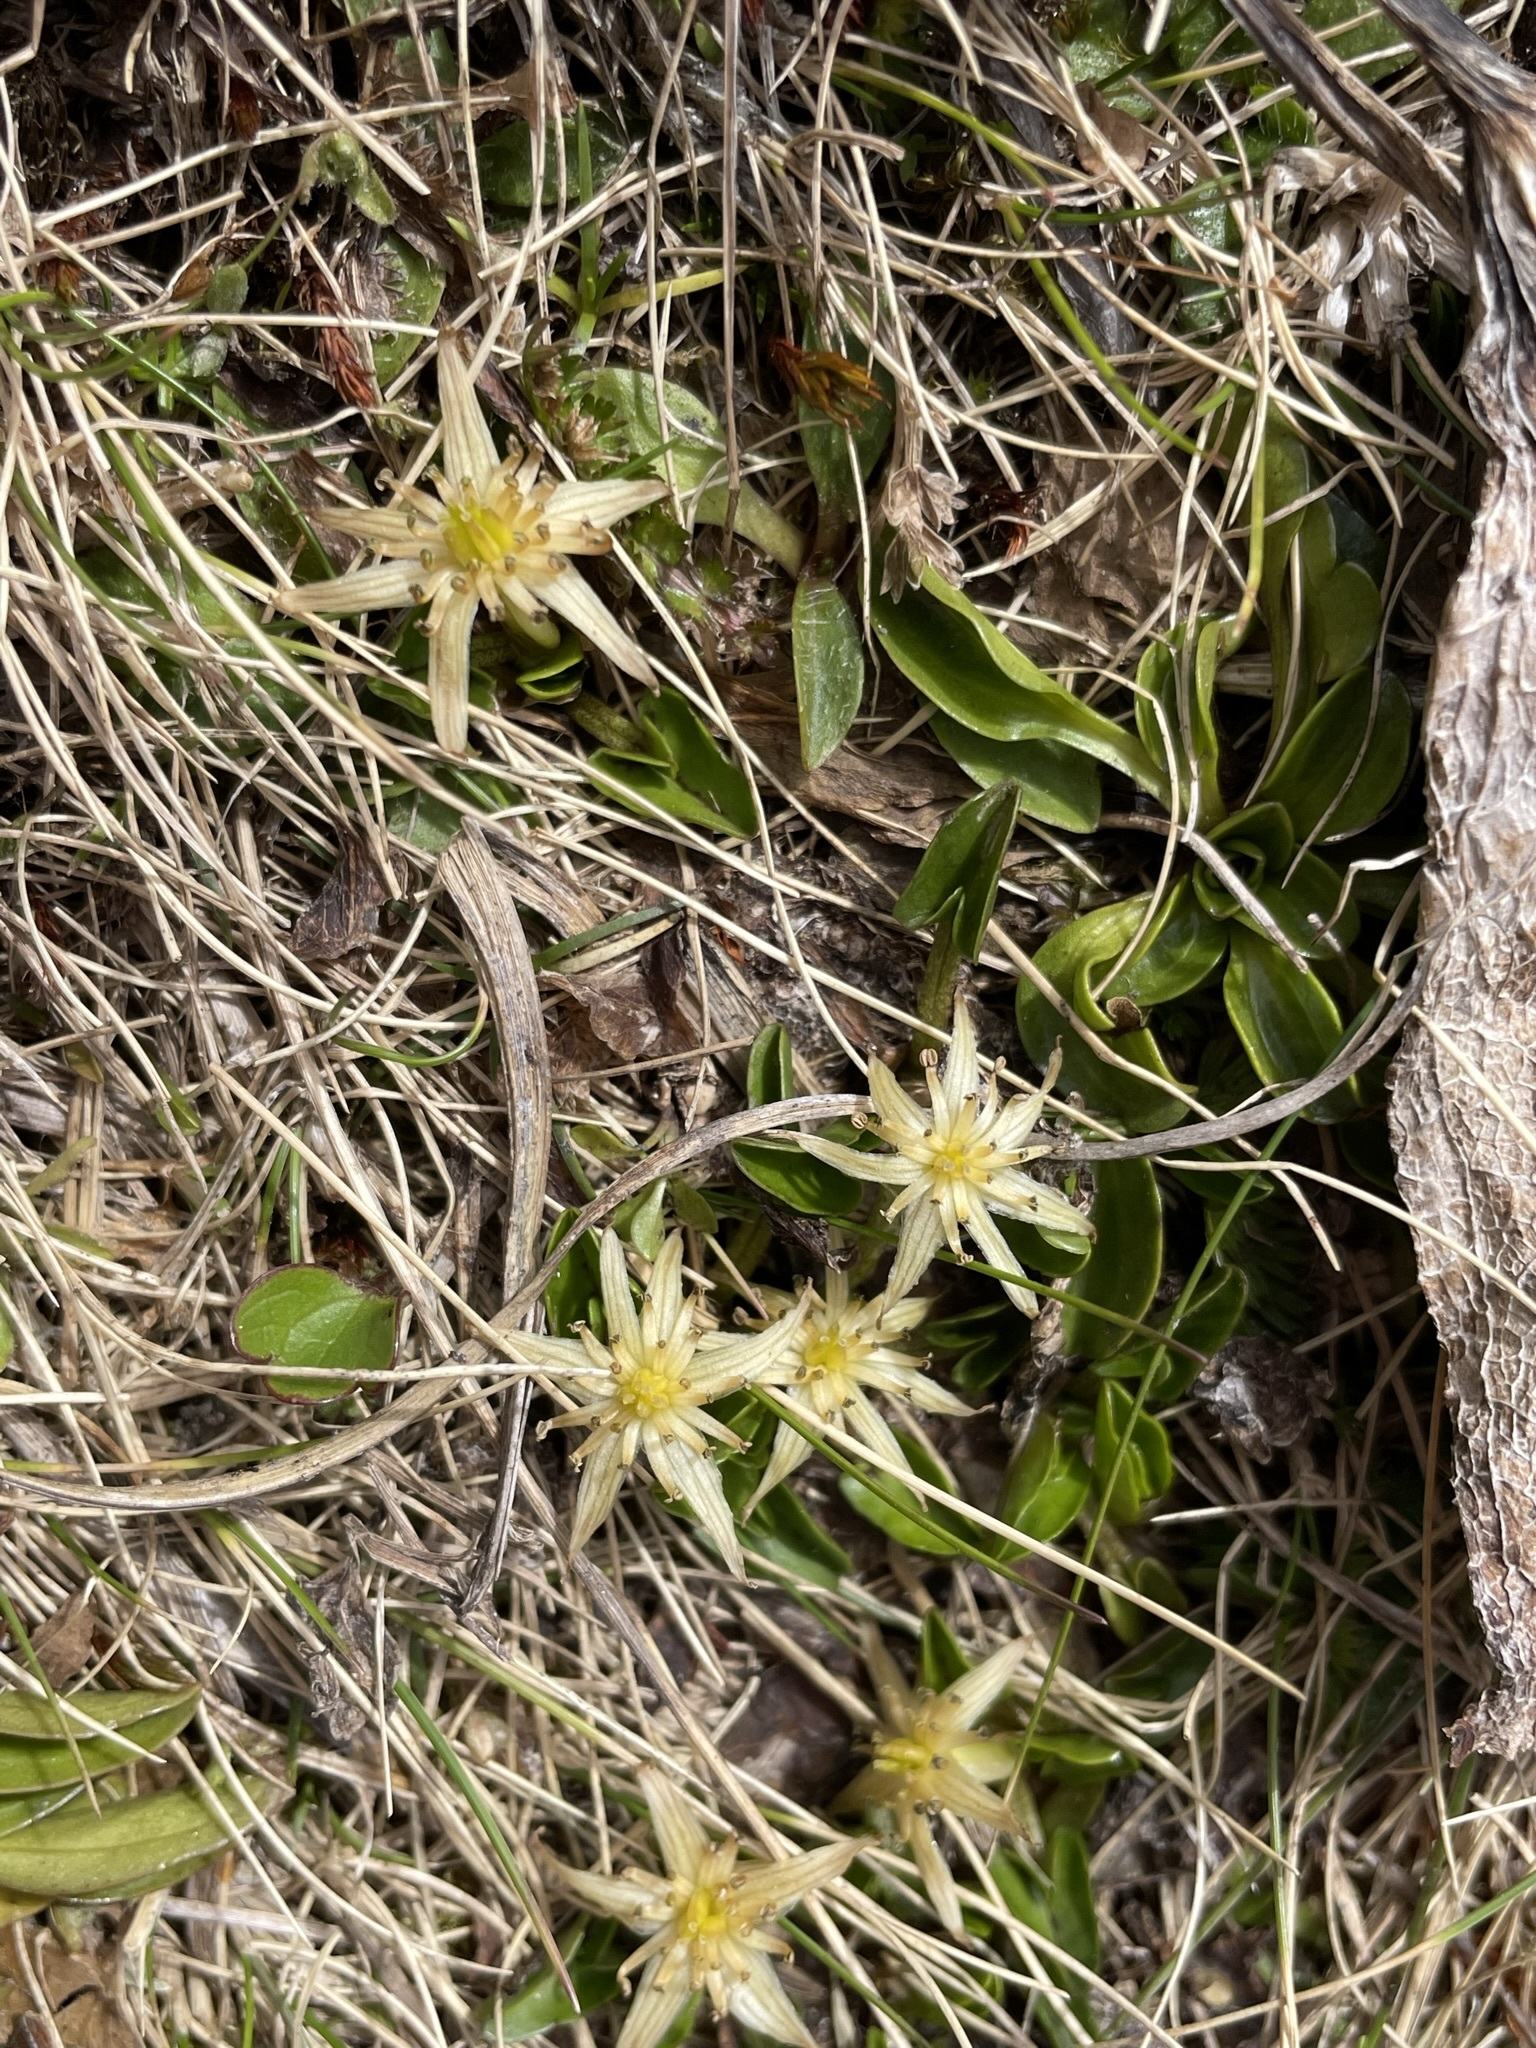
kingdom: Plantae
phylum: Tracheophyta
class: Magnoliopsida
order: Ranunculales
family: Ranunculaceae
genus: Caltha
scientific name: Caltha novae-zelandiae
